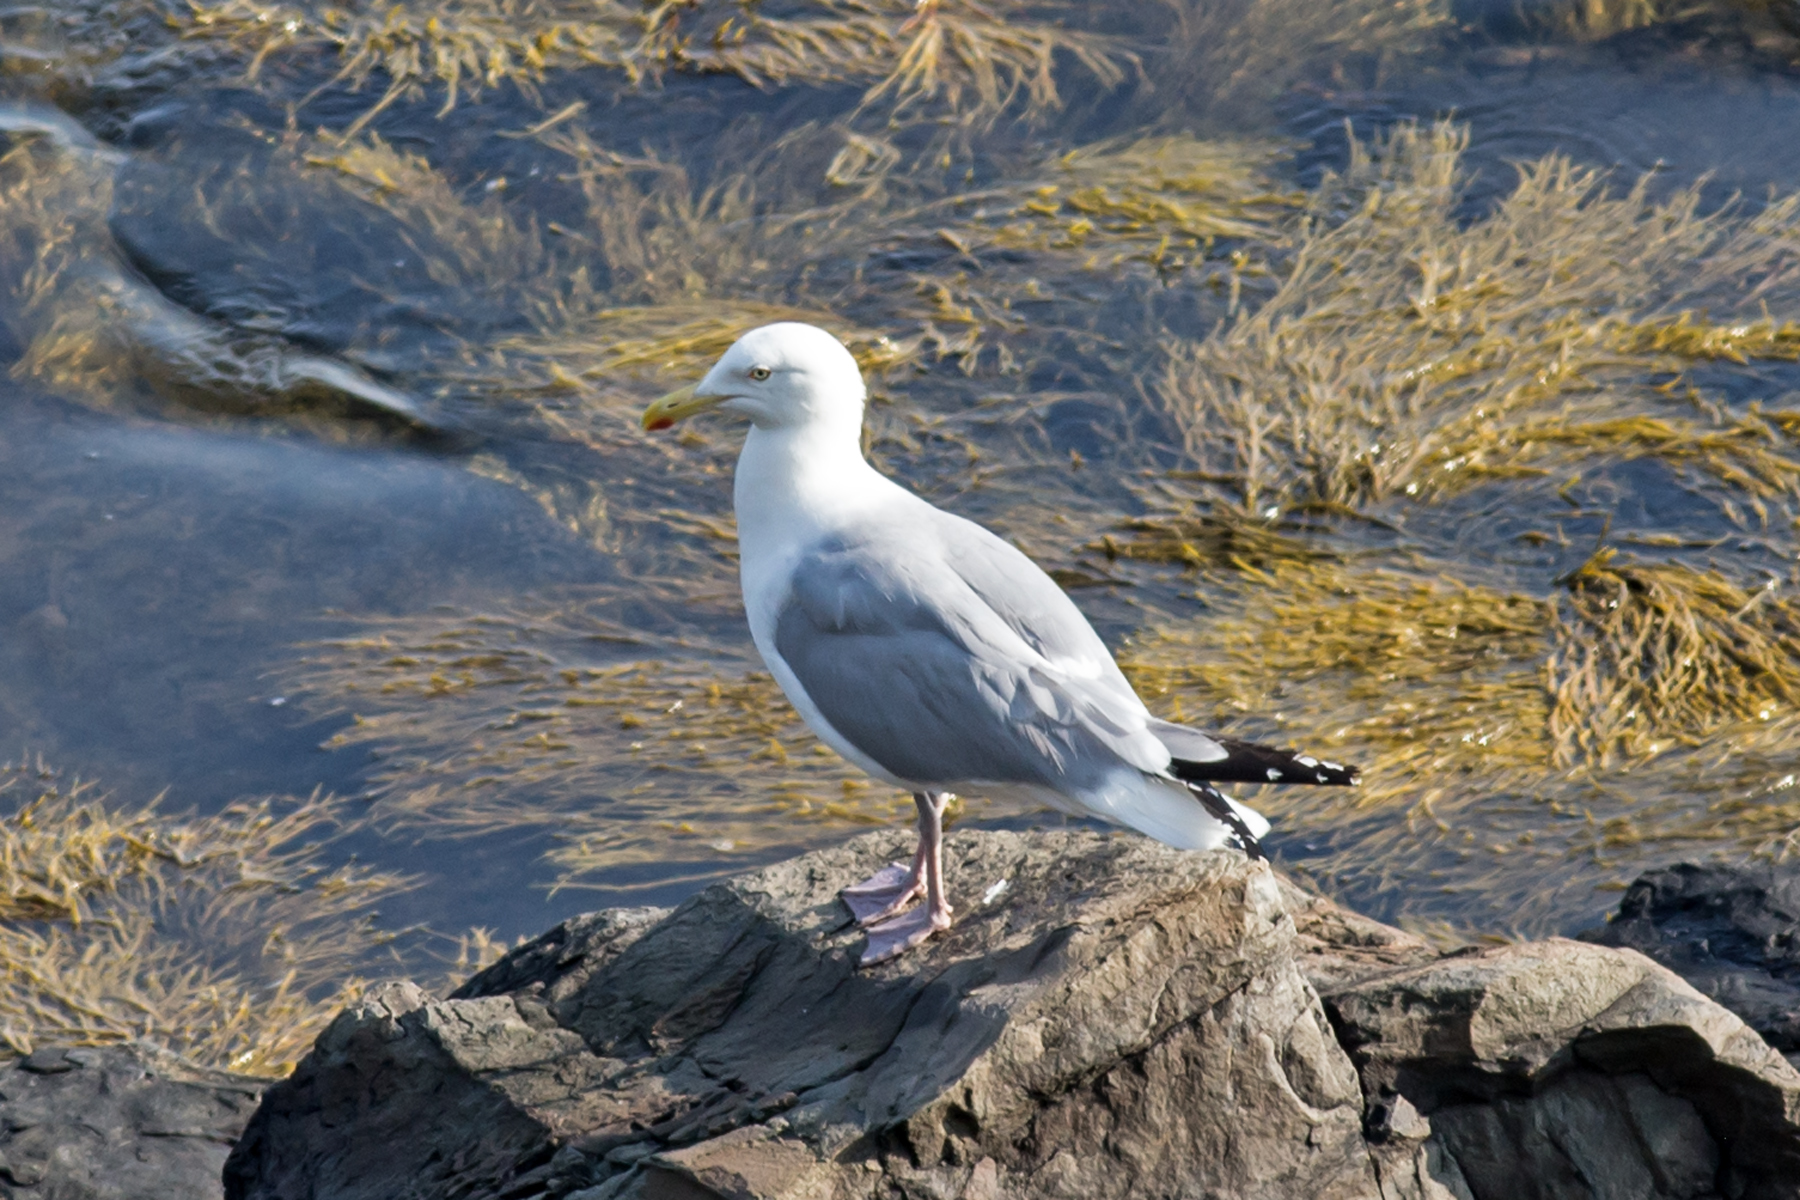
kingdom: Animalia
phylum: Chordata
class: Aves
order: Charadriiformes
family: Laridae
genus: Larus
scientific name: Larus argentatus
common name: Herring gull
